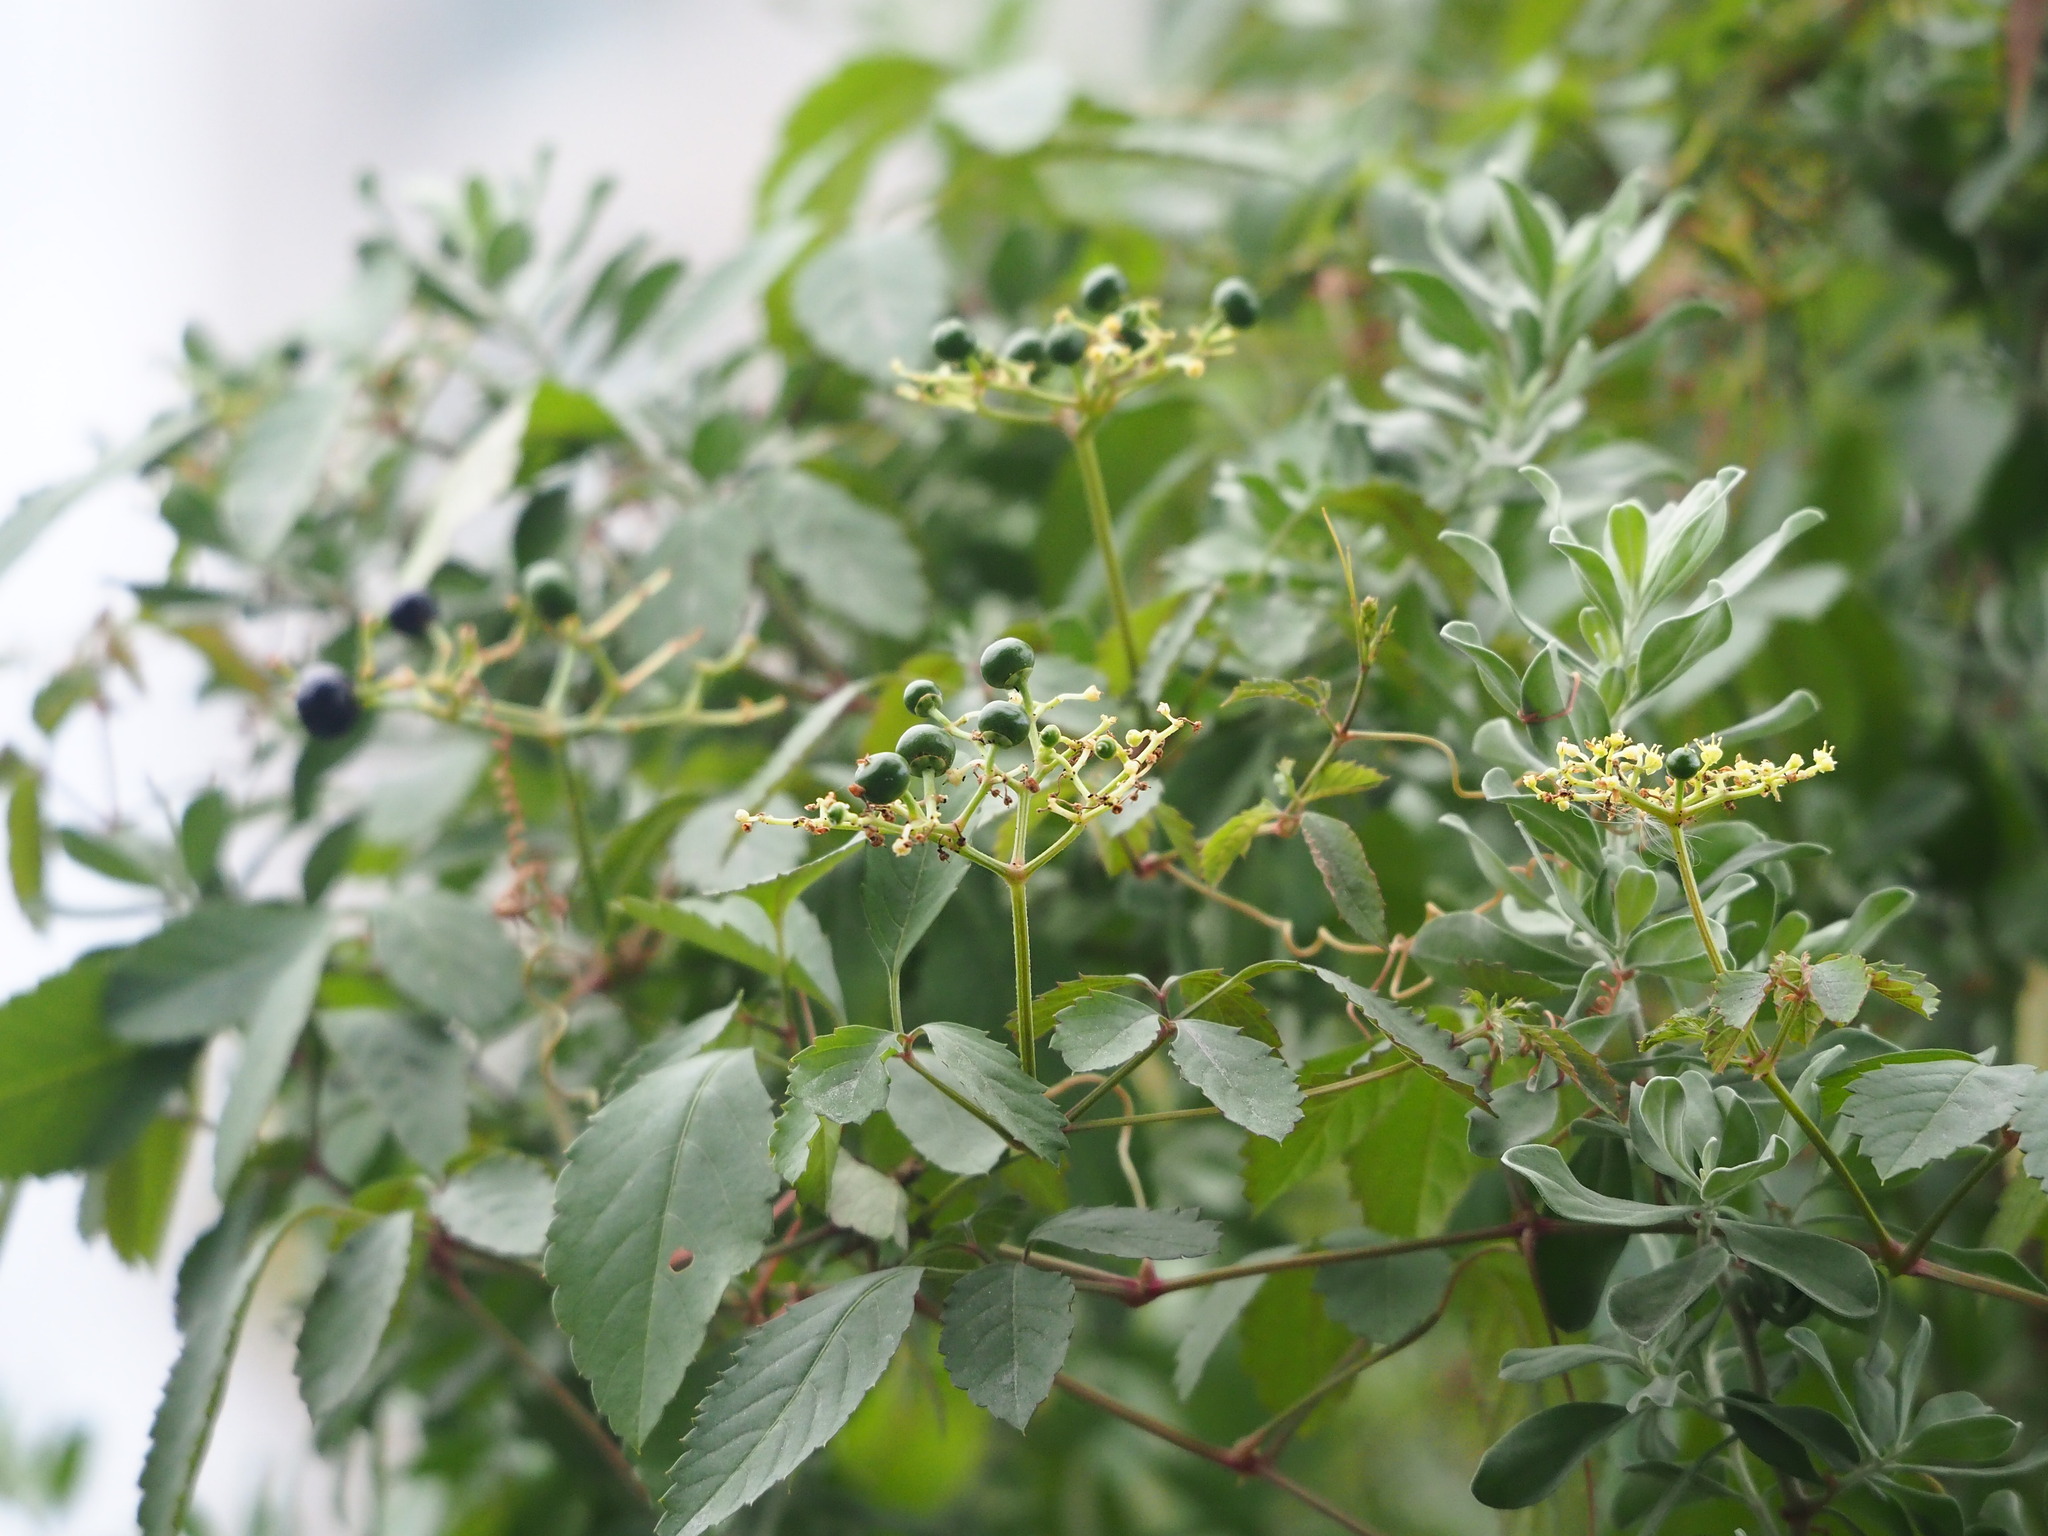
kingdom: Plantae
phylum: Tracheophyta
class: Magnoliopsida
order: Vitales
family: Vitaceae
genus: Causonis
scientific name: Causonis japonica
